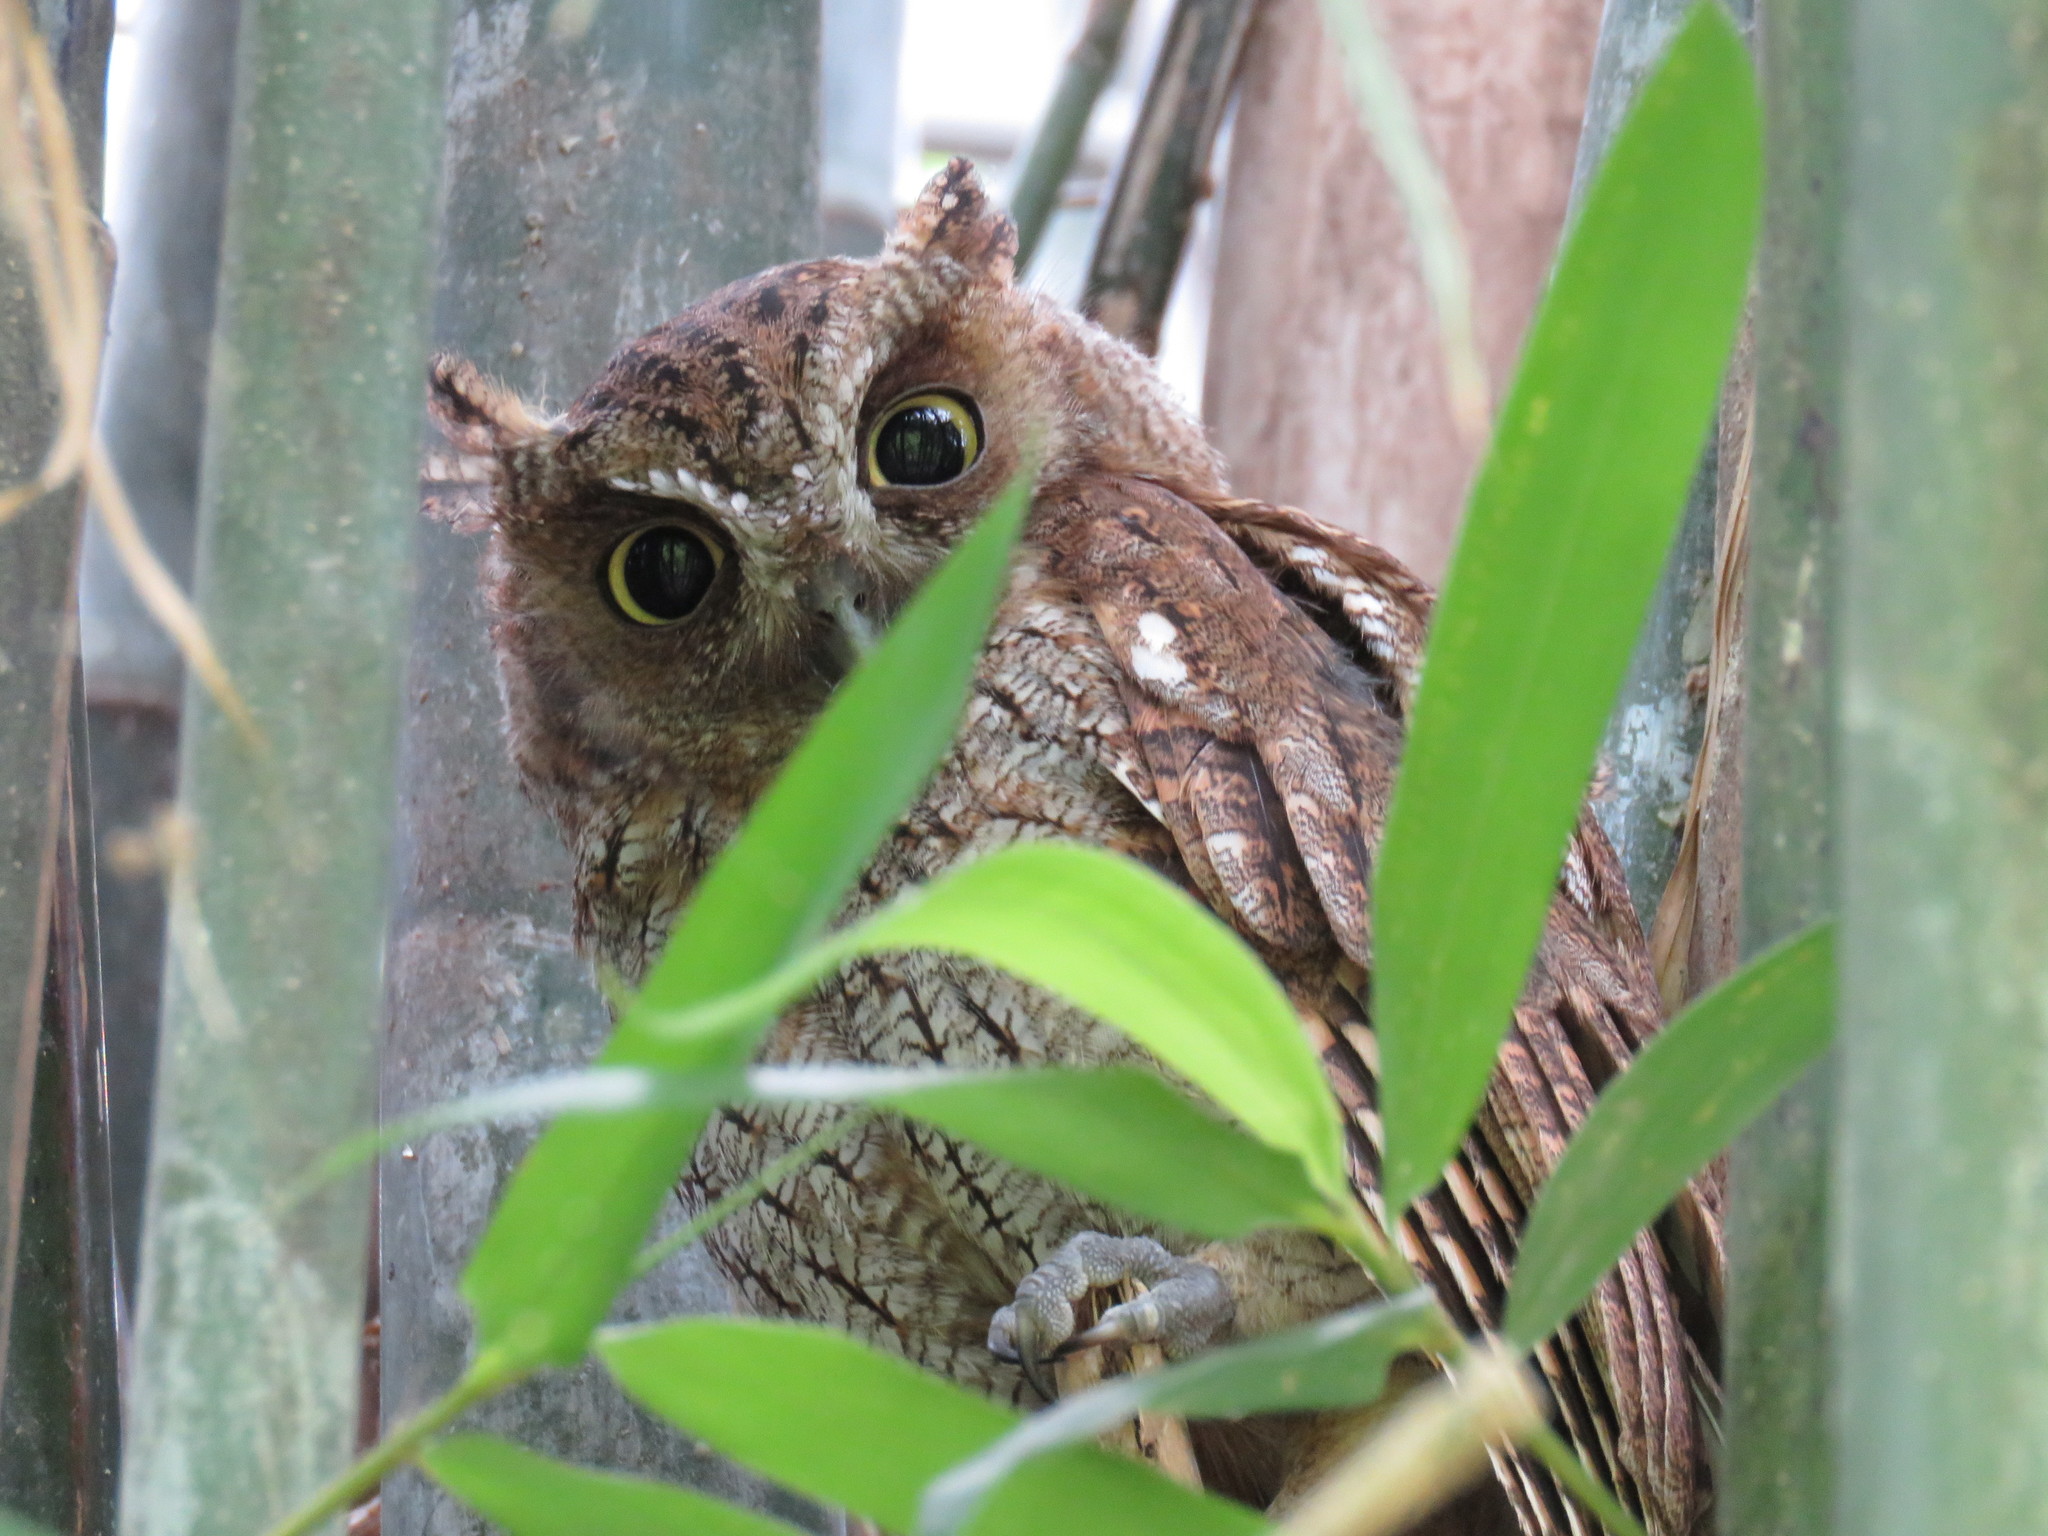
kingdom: Animalia
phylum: Chordata
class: Aves
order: Strigiformes
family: Strigidae
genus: Megascops
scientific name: Megascops choliba
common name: Tropical screech-owl
